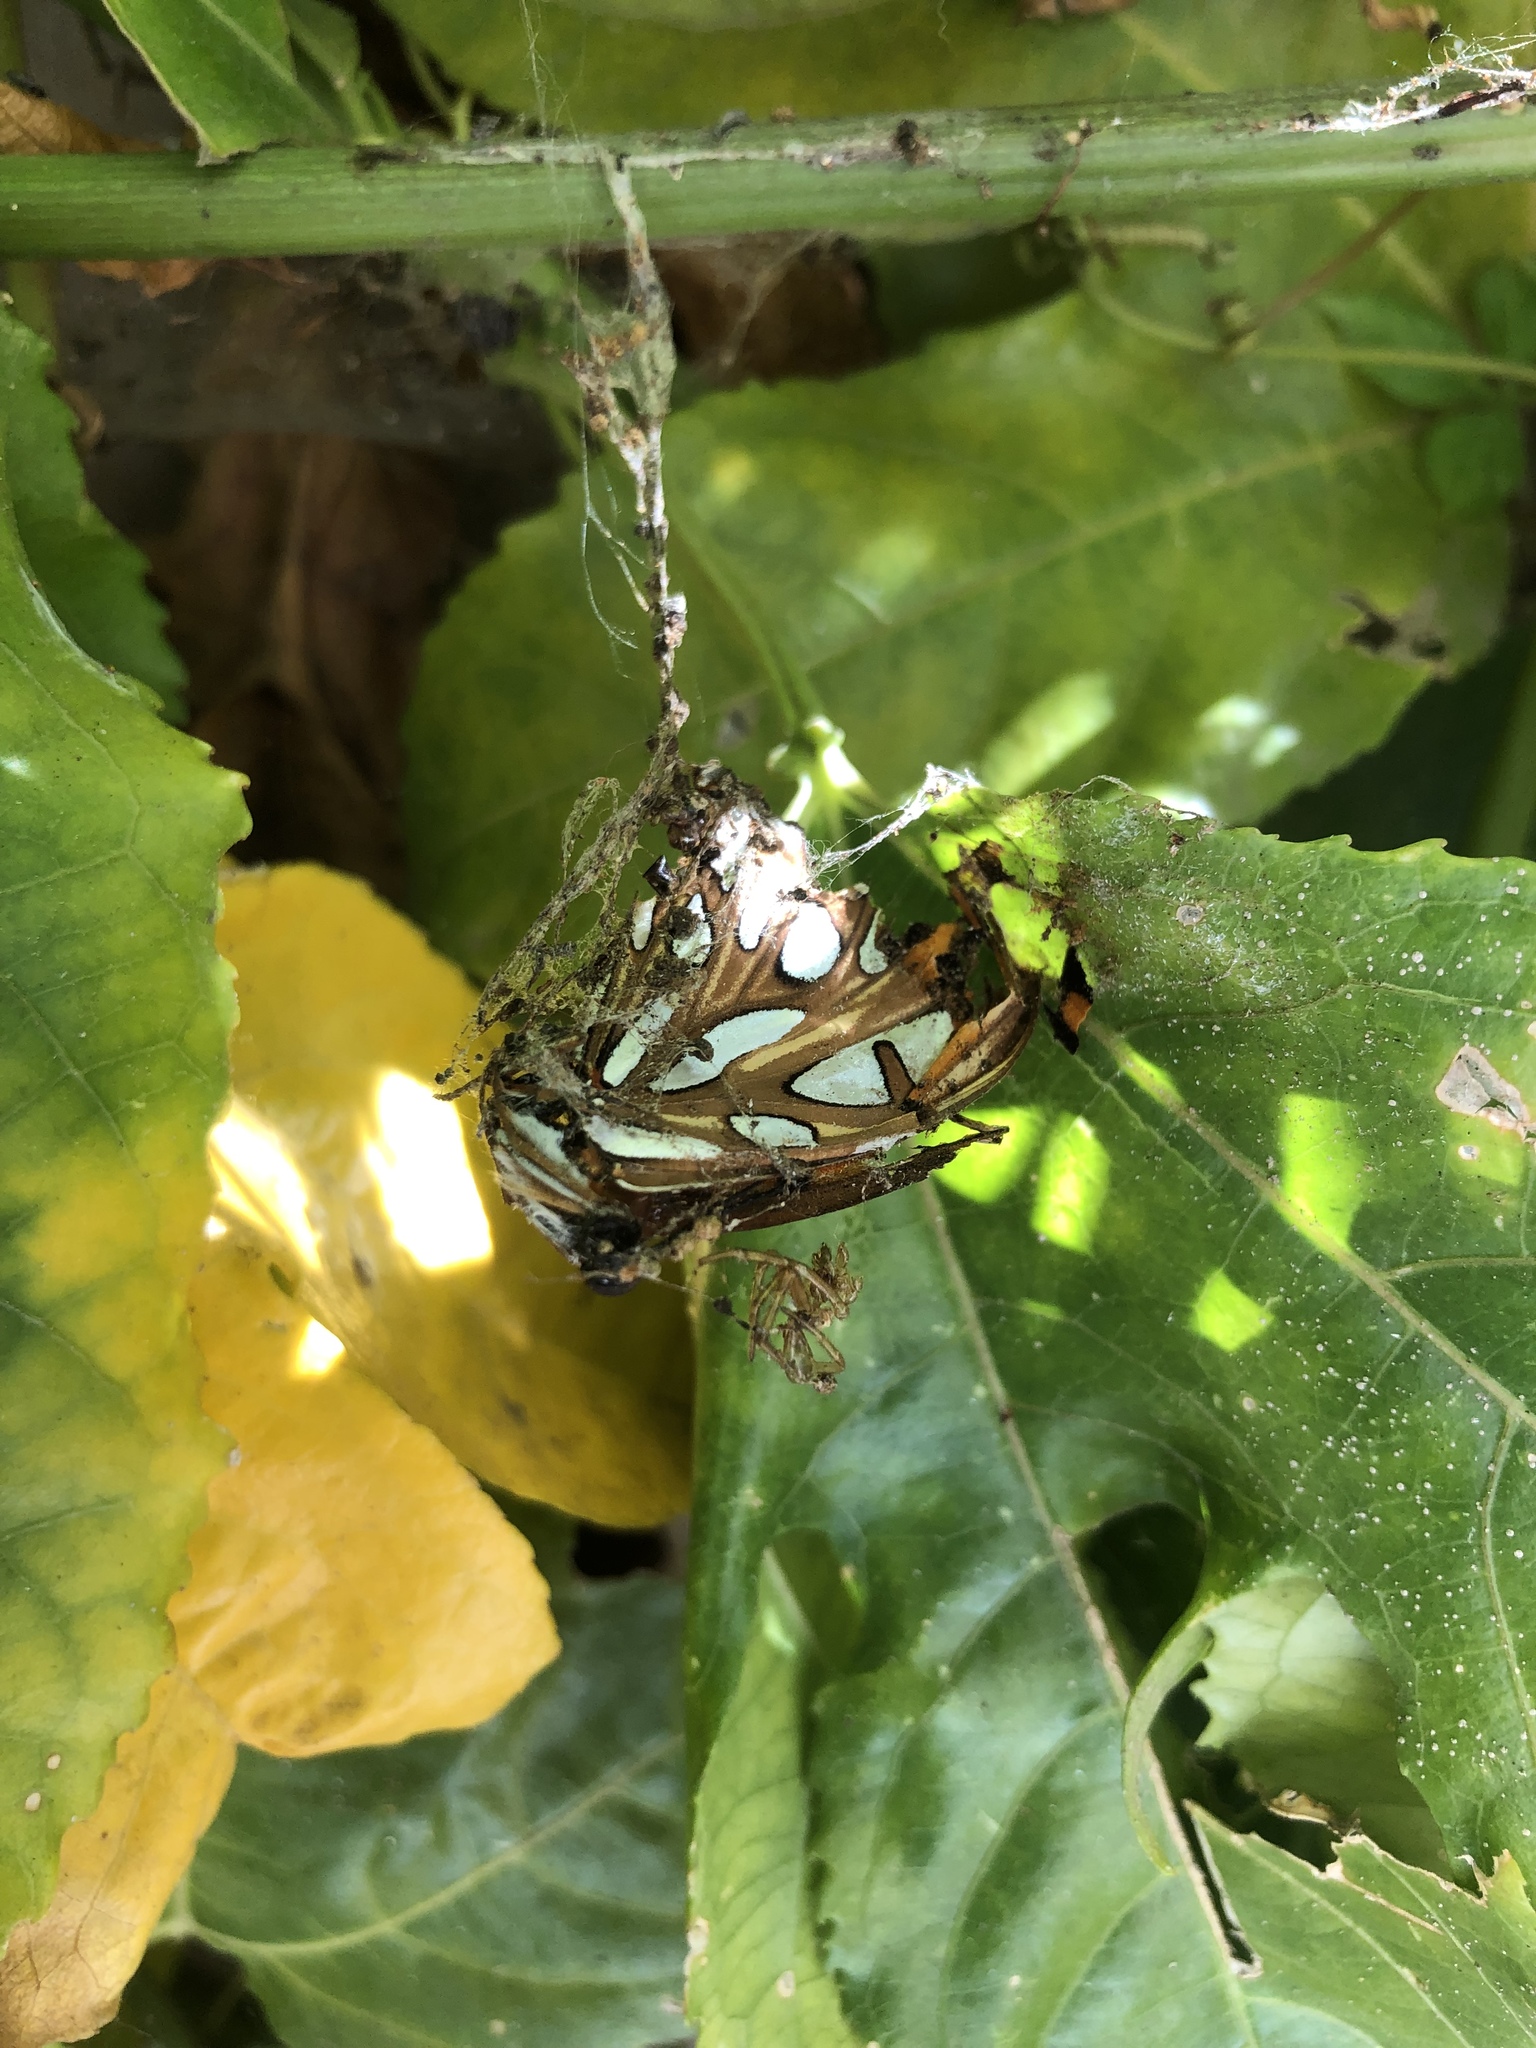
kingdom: Animalia
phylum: Arthropoda
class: Insecta
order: Lepidoptera
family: Nymphalidae
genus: Dione
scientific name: Dione vanillae
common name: Gulf fritillary
